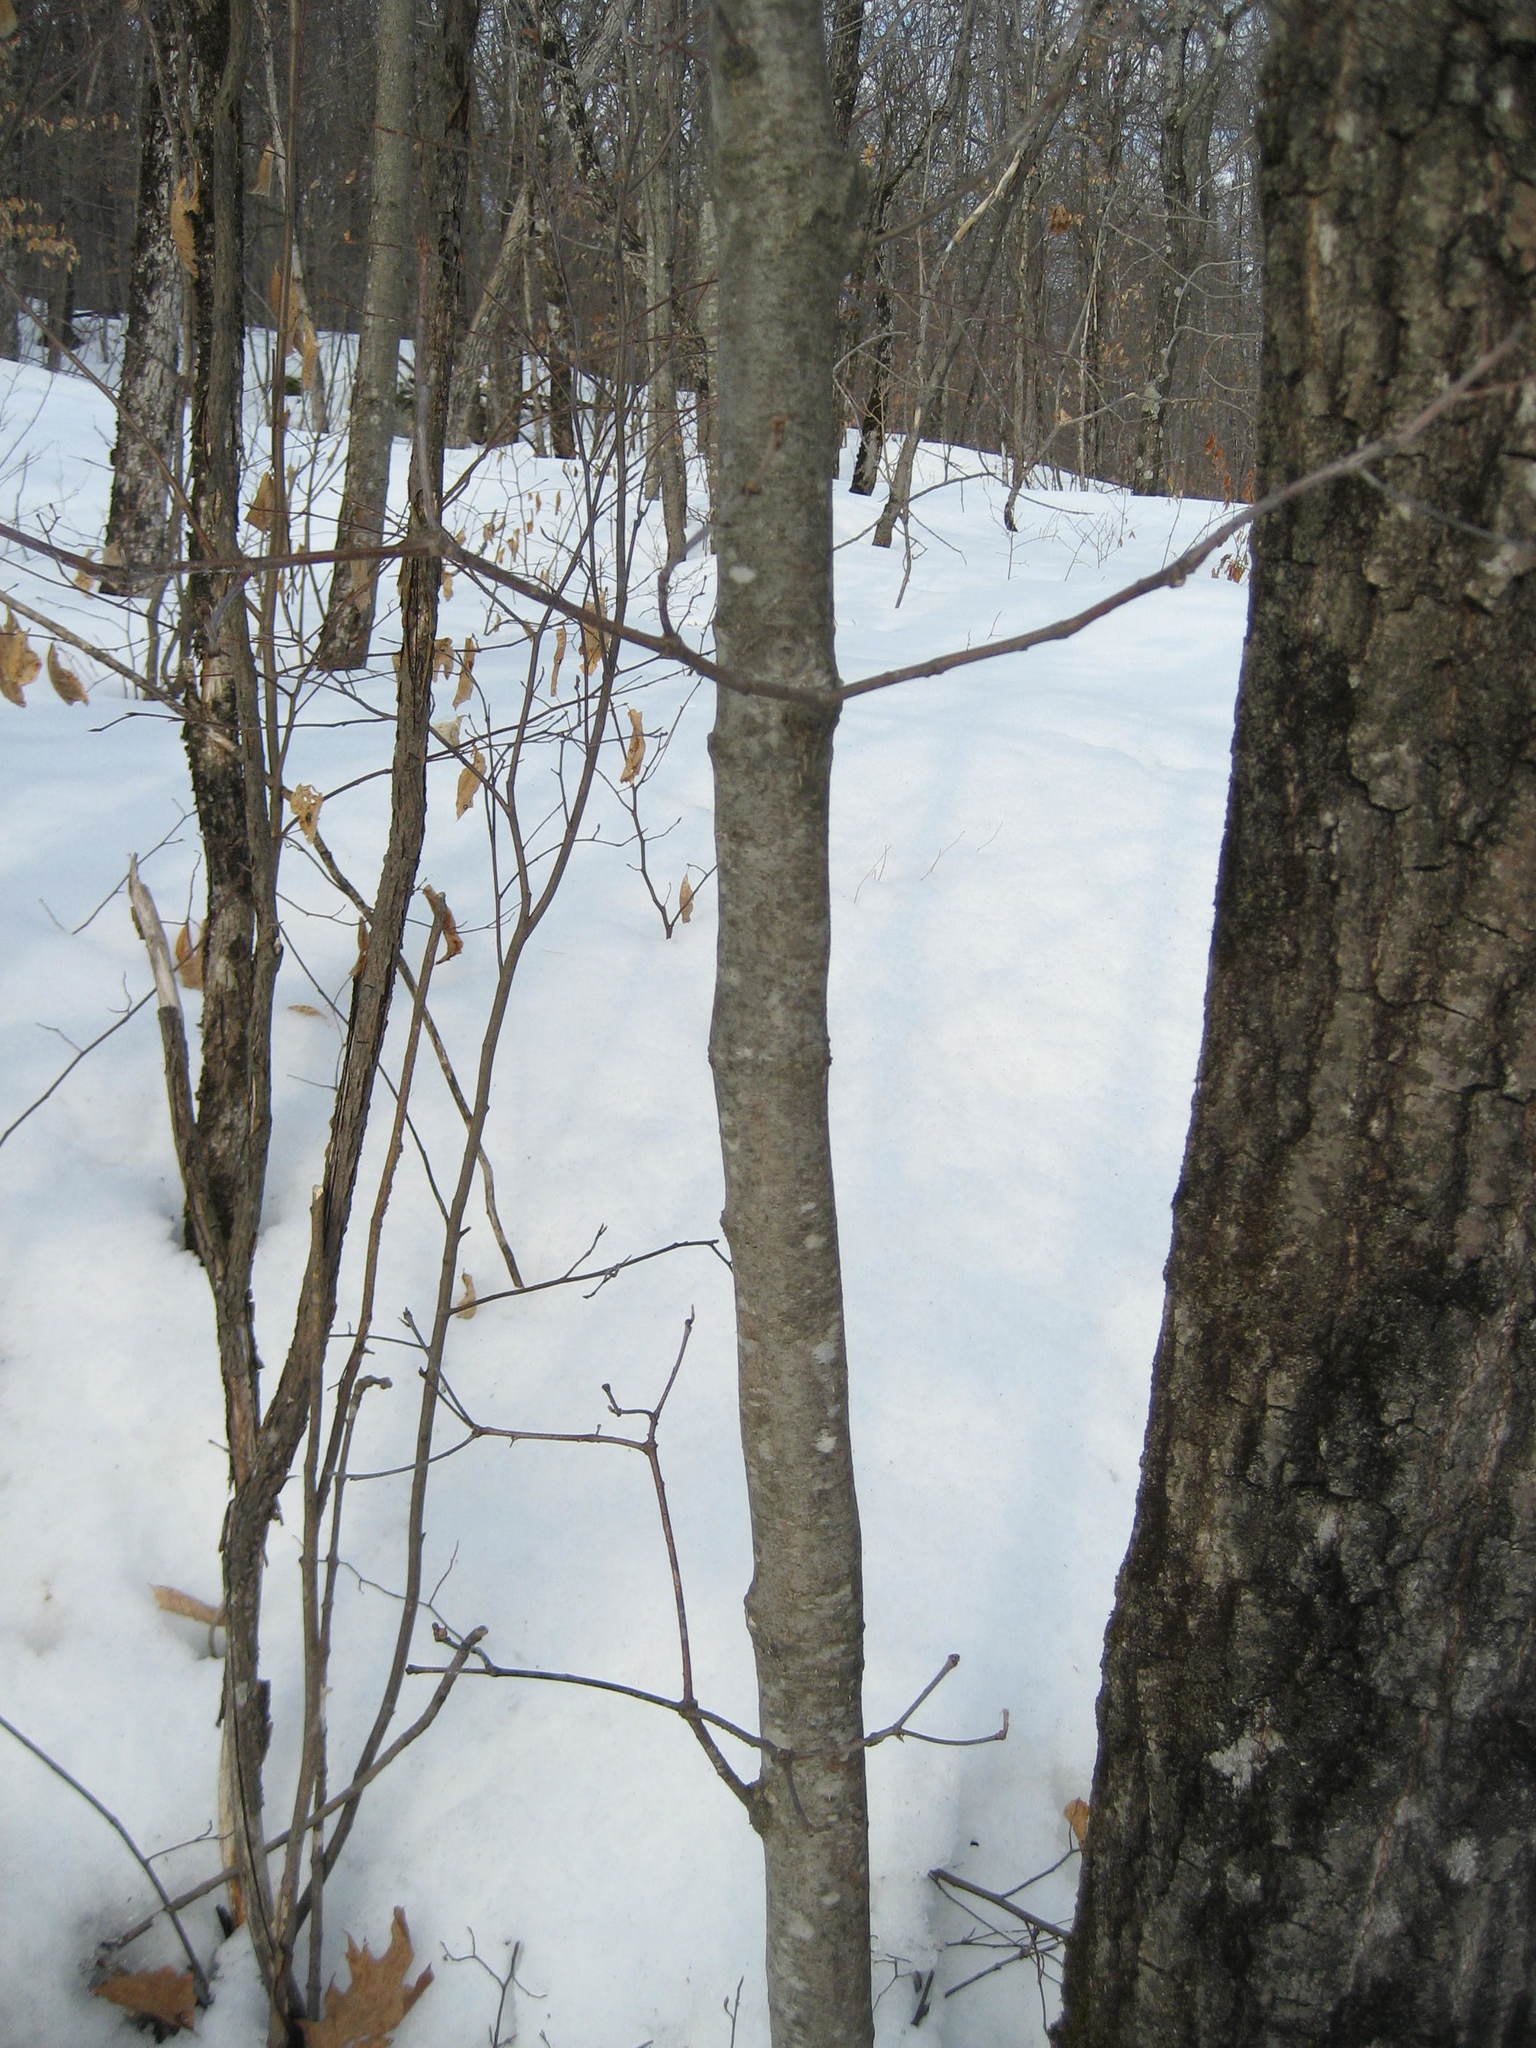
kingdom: Plantae
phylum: Tracheophyta
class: Magnoliopsida
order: Fagales
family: Fagaceae
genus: Quercus
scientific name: Quercus rubra
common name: Red oak
